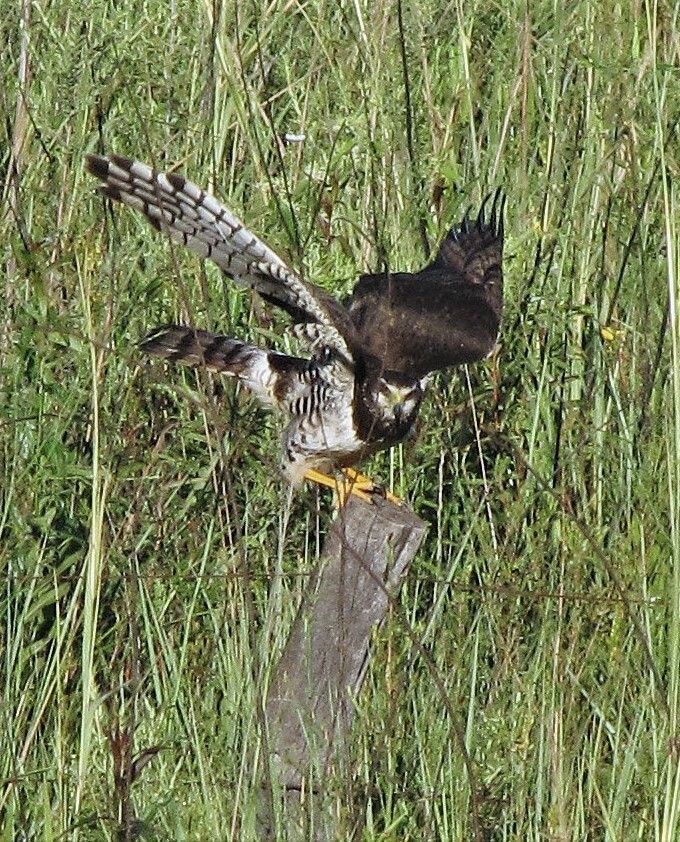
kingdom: Animalia
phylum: Chordata
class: Aves
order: Accipitriformes
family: Accipitridae
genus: Circus
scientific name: Circus buffoni
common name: Long-winged harrier
